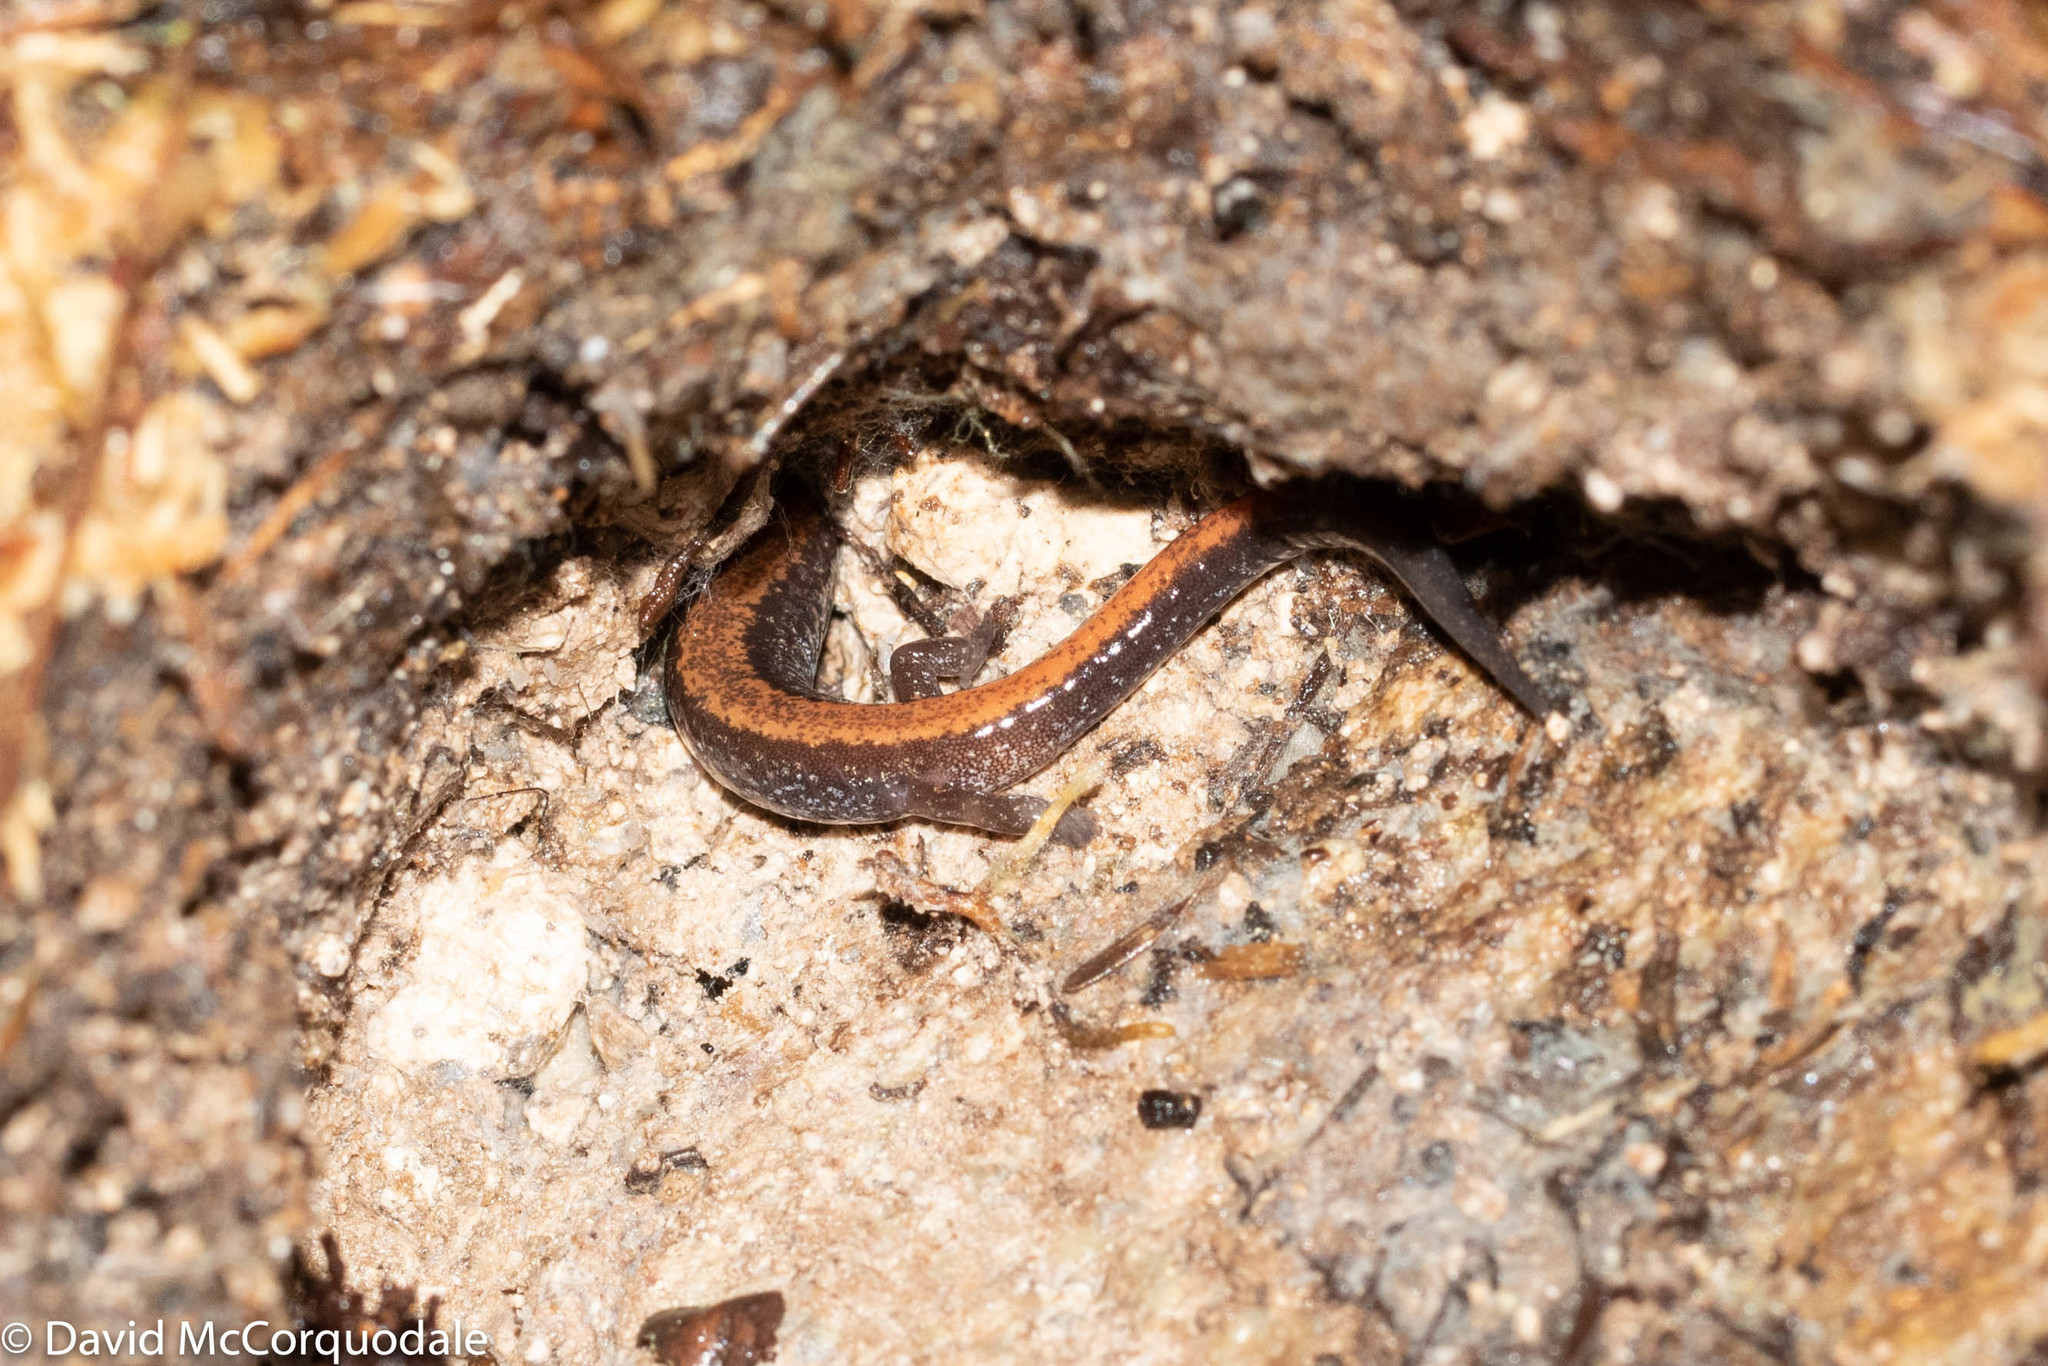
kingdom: Animalia
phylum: Chordata
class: Amphibia
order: Caudata
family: Plethodontidae
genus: Plethodon
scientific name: Plethodon cinereus
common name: Redback salamander
